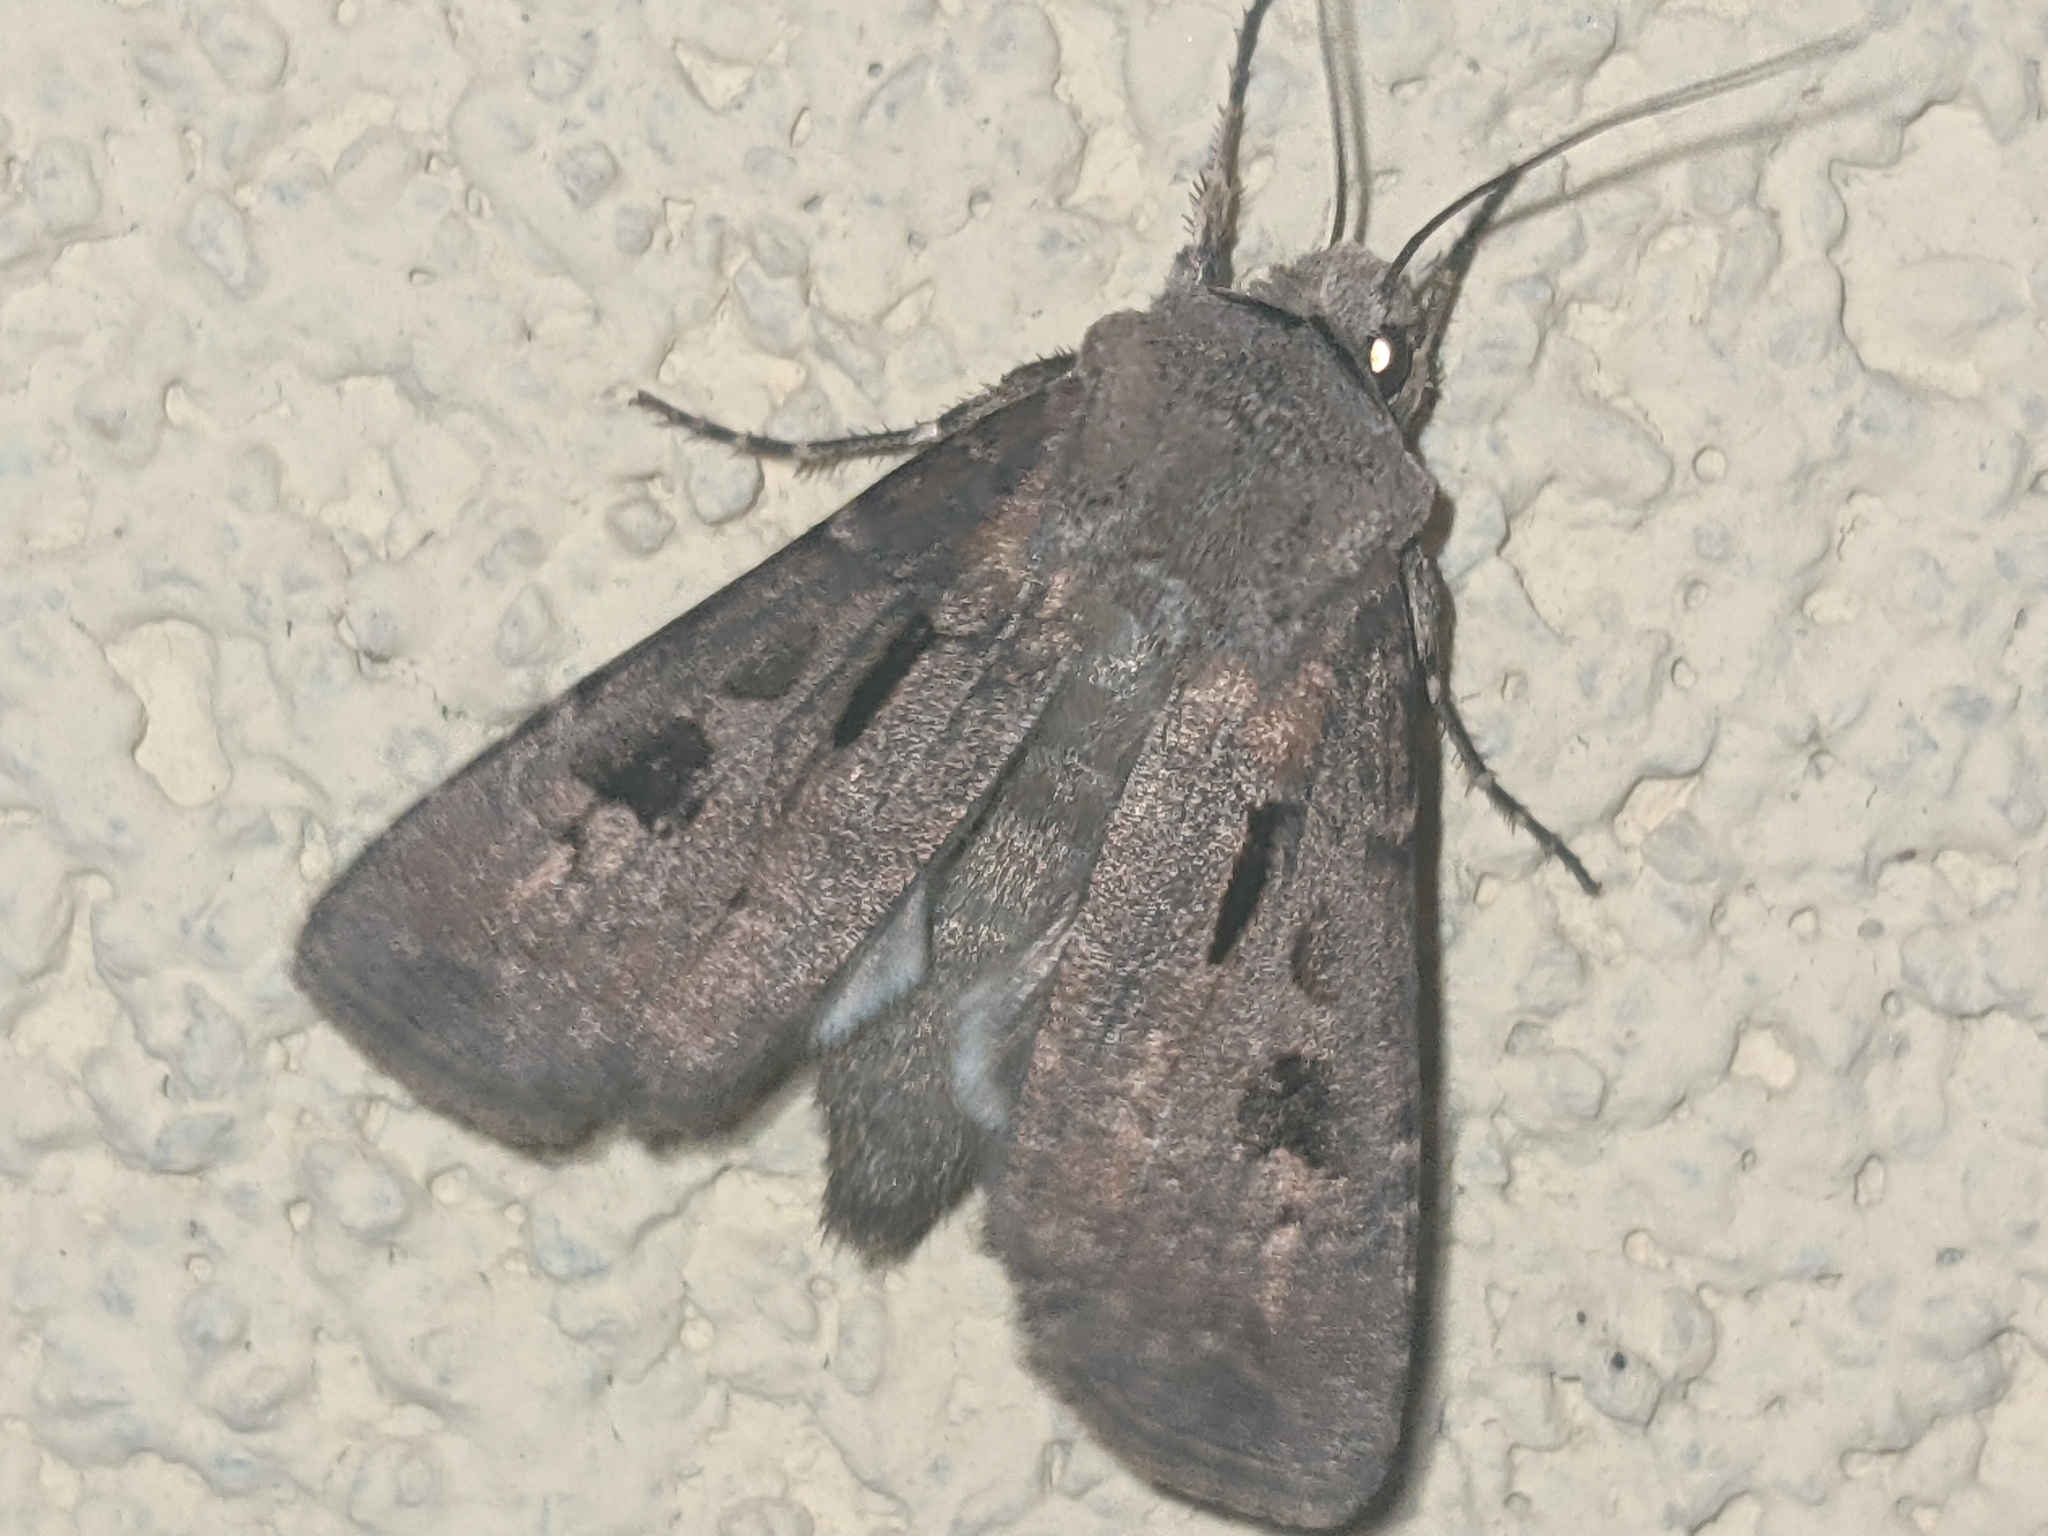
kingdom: Animalia
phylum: Arthropoda
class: Insecta
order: Lepidoptera
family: Noctuidae
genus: Agrotis
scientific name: Agrotis exclamationis
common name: Heart and dart
